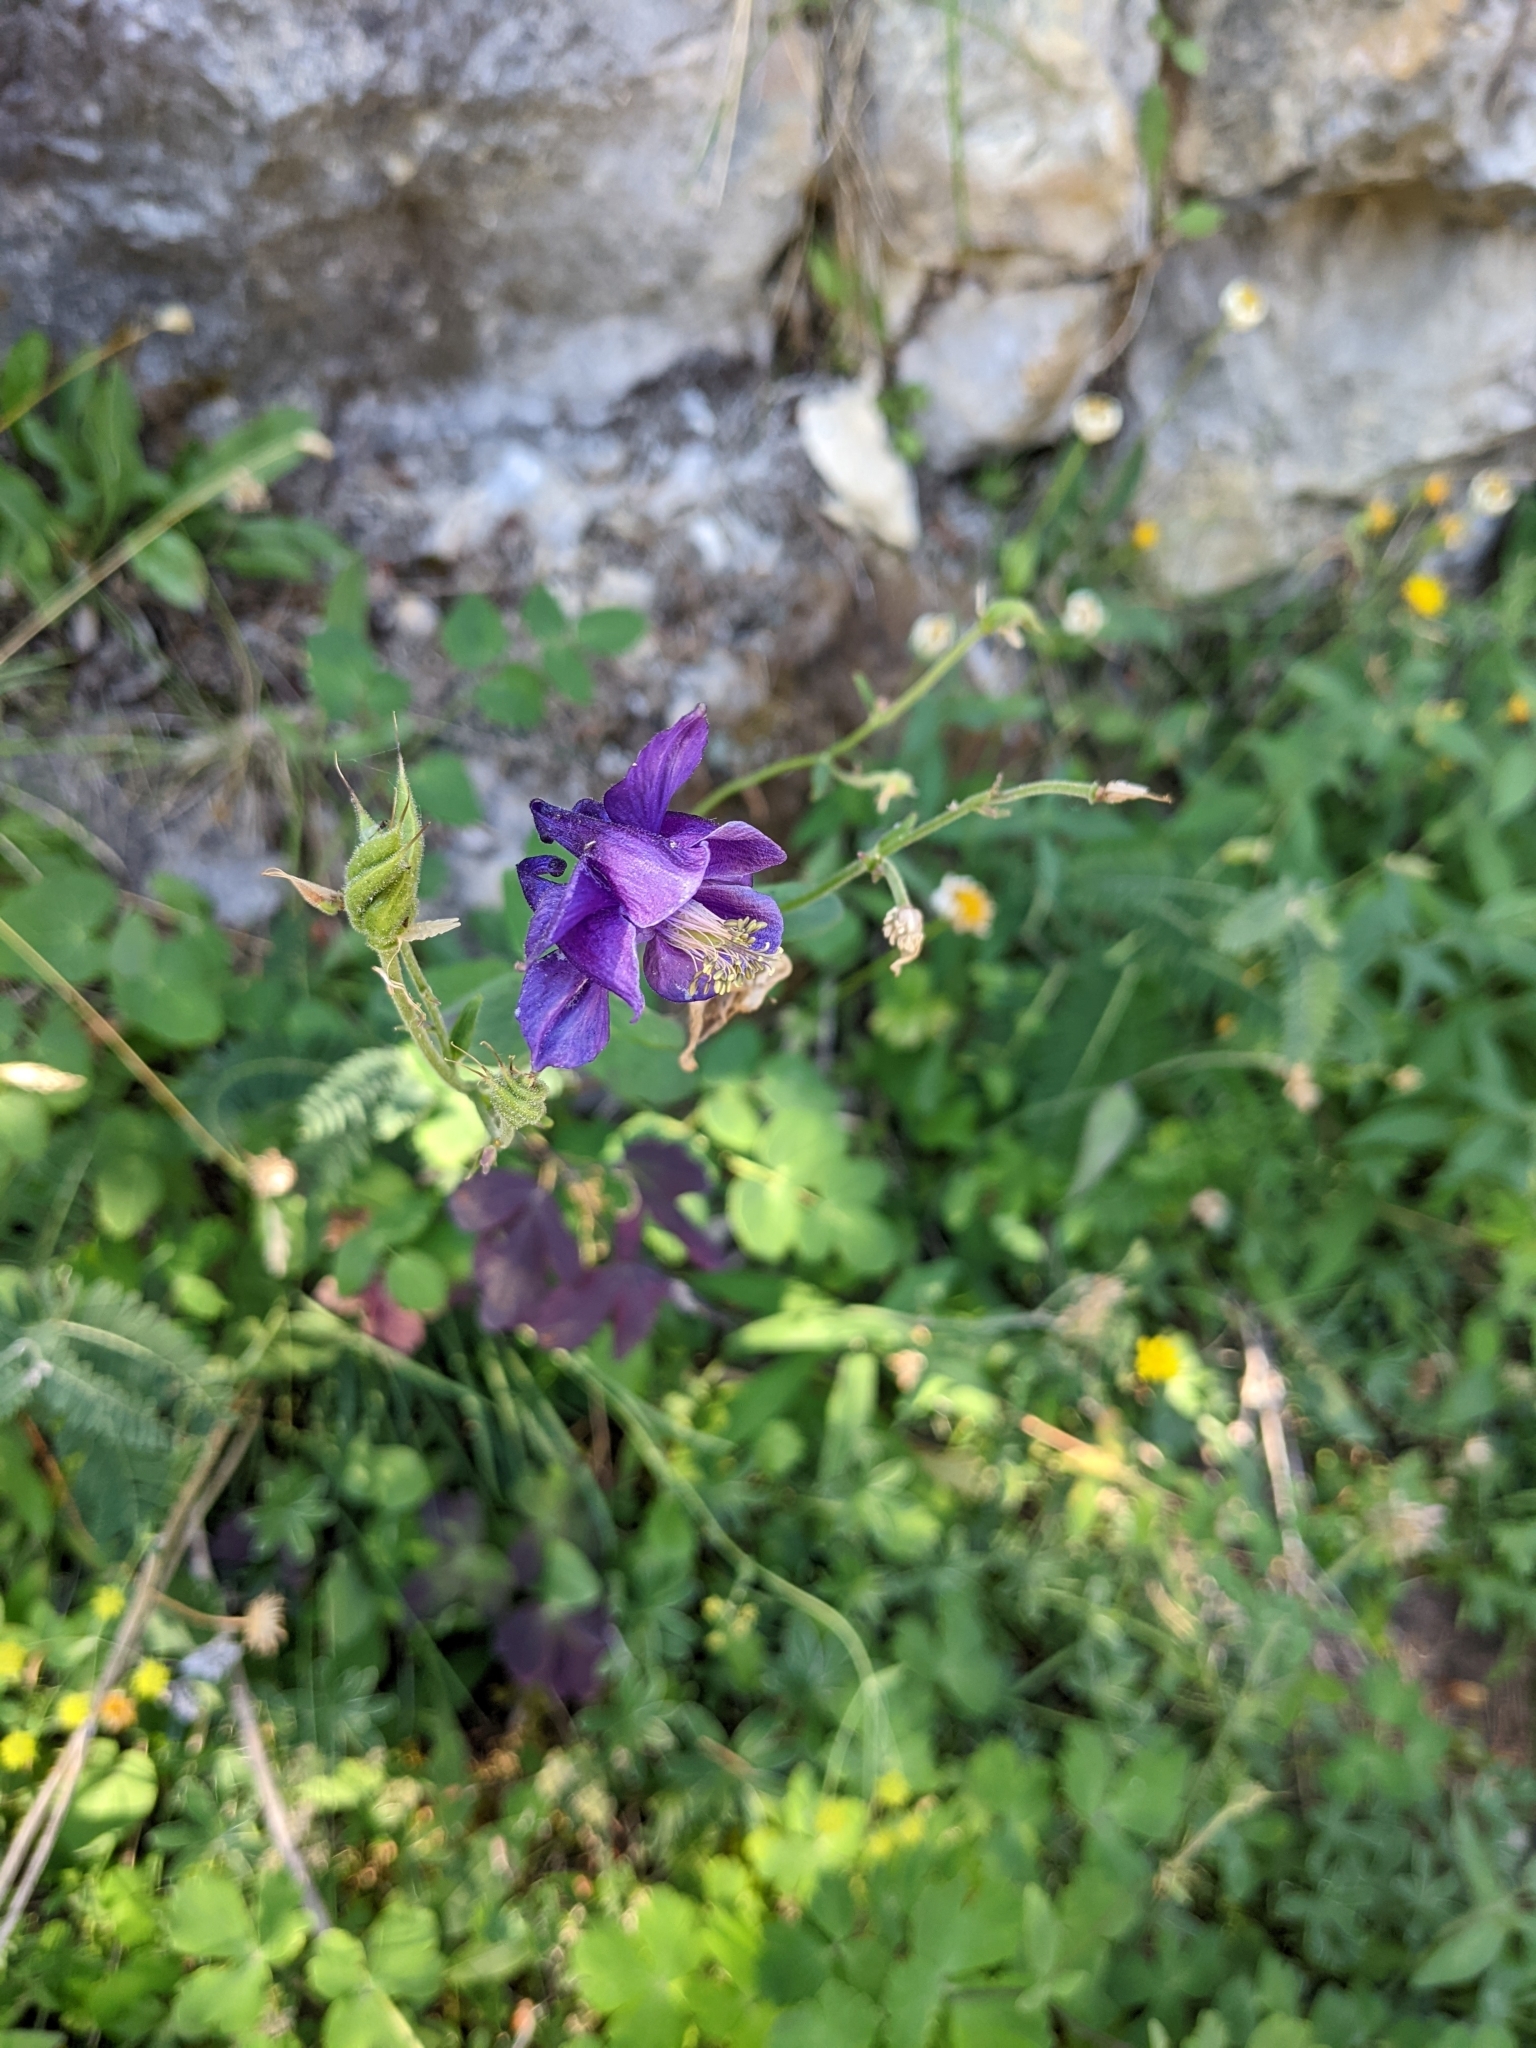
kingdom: Plantae
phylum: Tracheophyta
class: Magnoliopsida
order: Ranunculales
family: Ranunculaceae
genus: Aquilegia
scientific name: Aquilegia vulgaris
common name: Columbine
